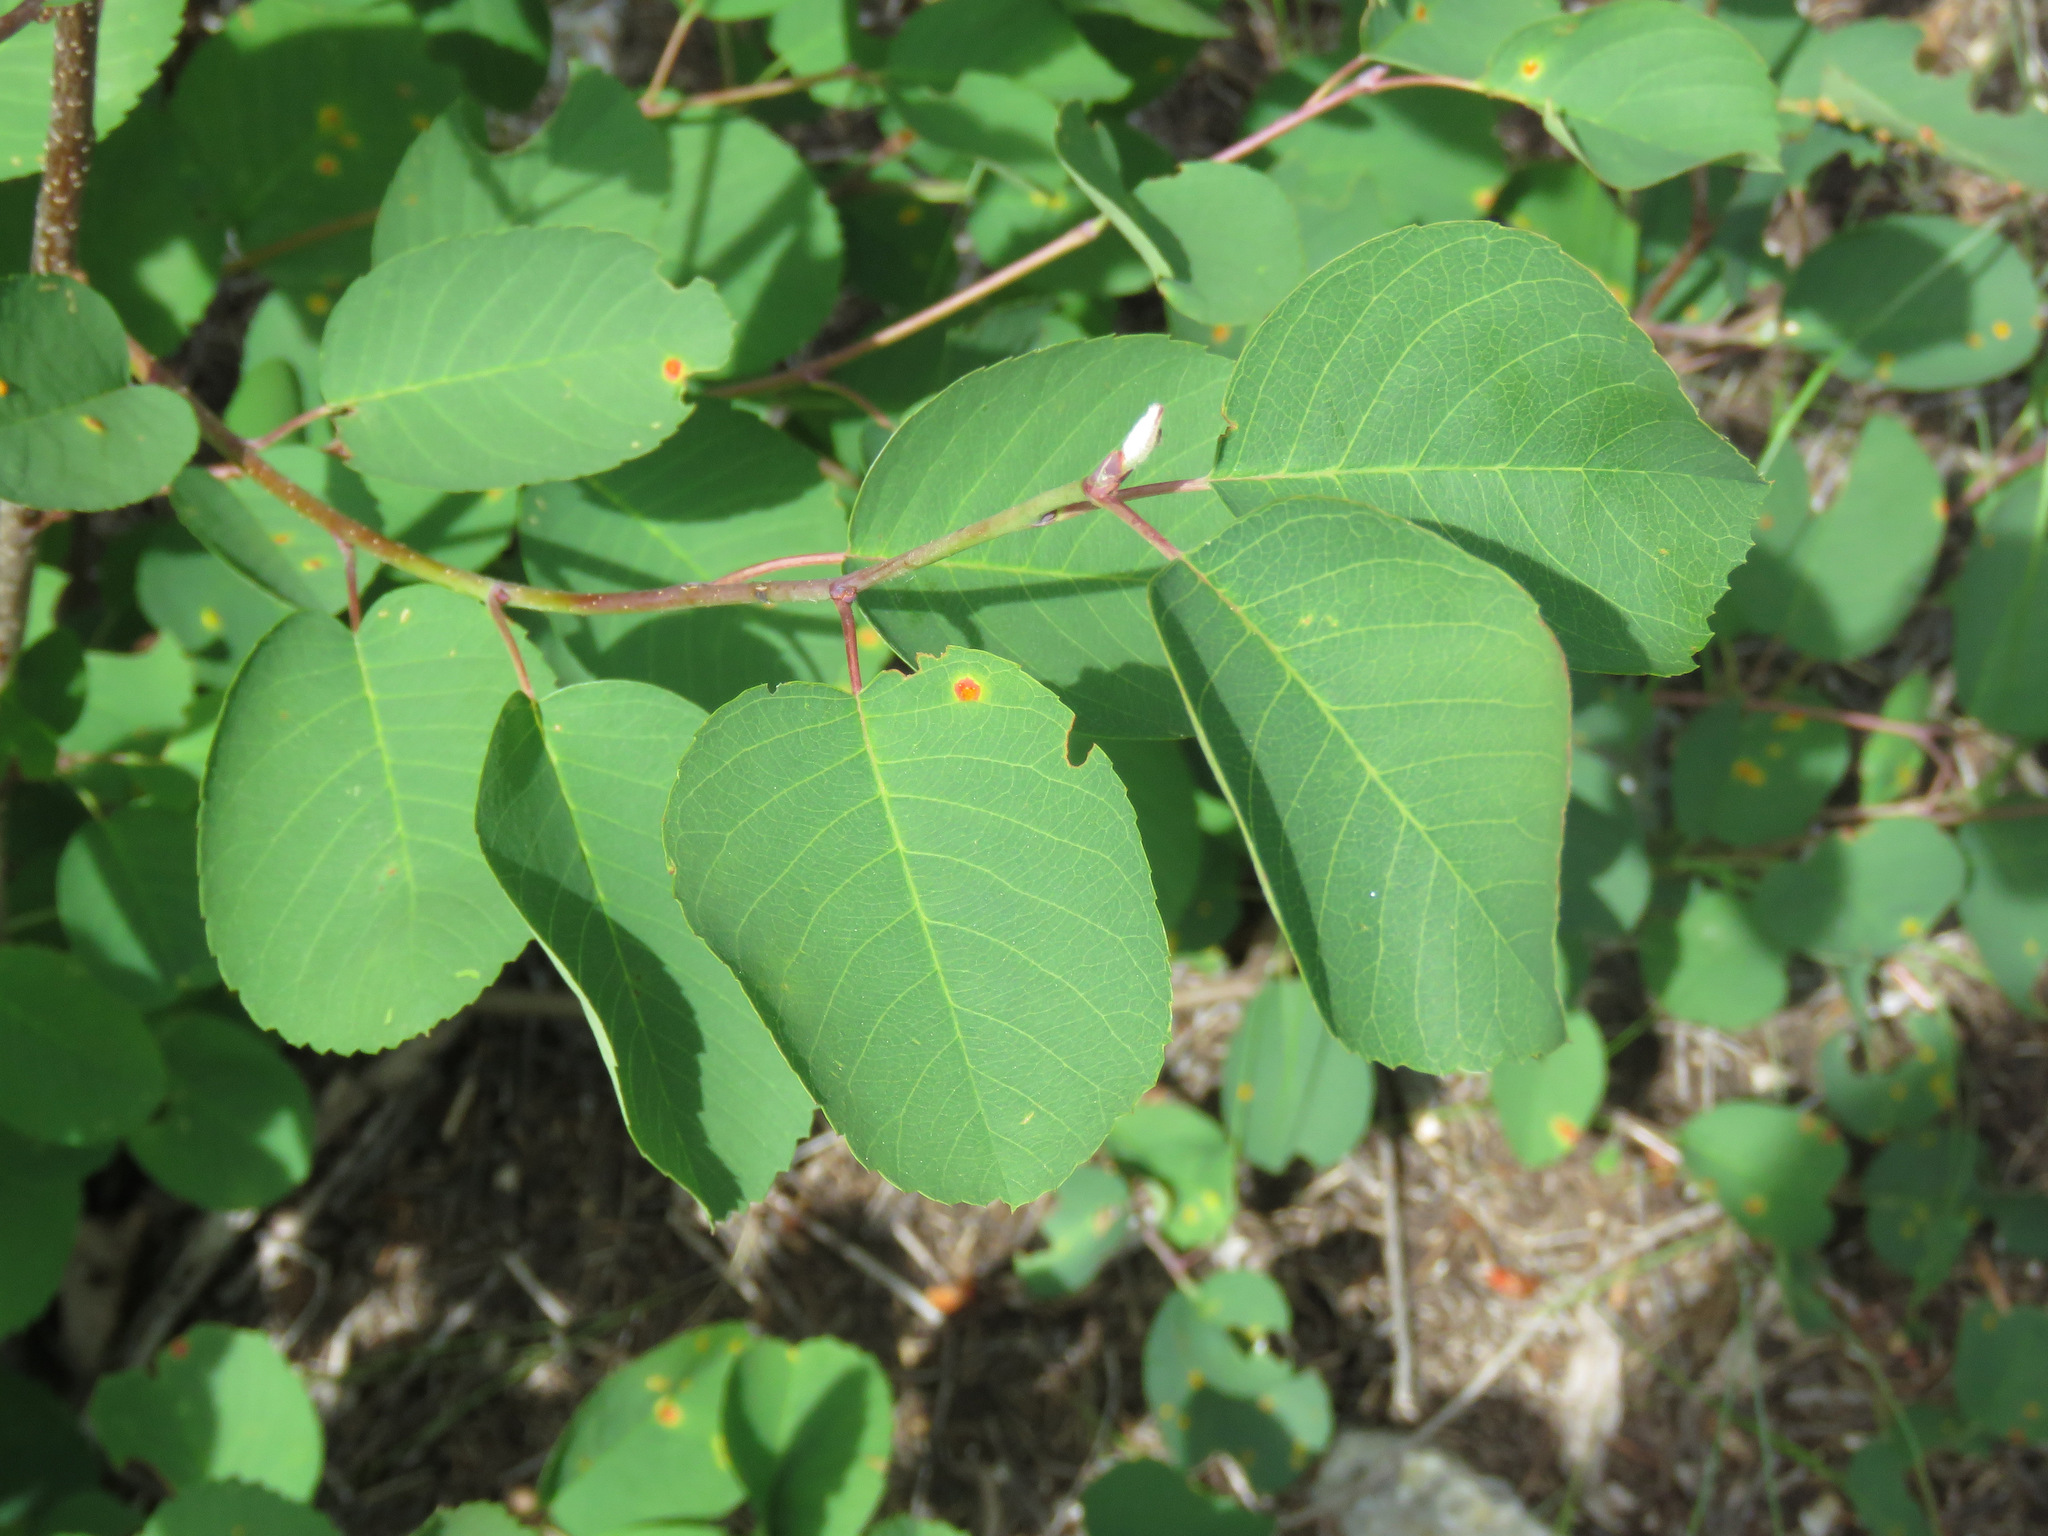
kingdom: Plantae
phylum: Tracheophyta
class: Magnoliopsida
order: Rosales
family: Rosaceae
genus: Amelanchier
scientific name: Amelanchier alnifolia
